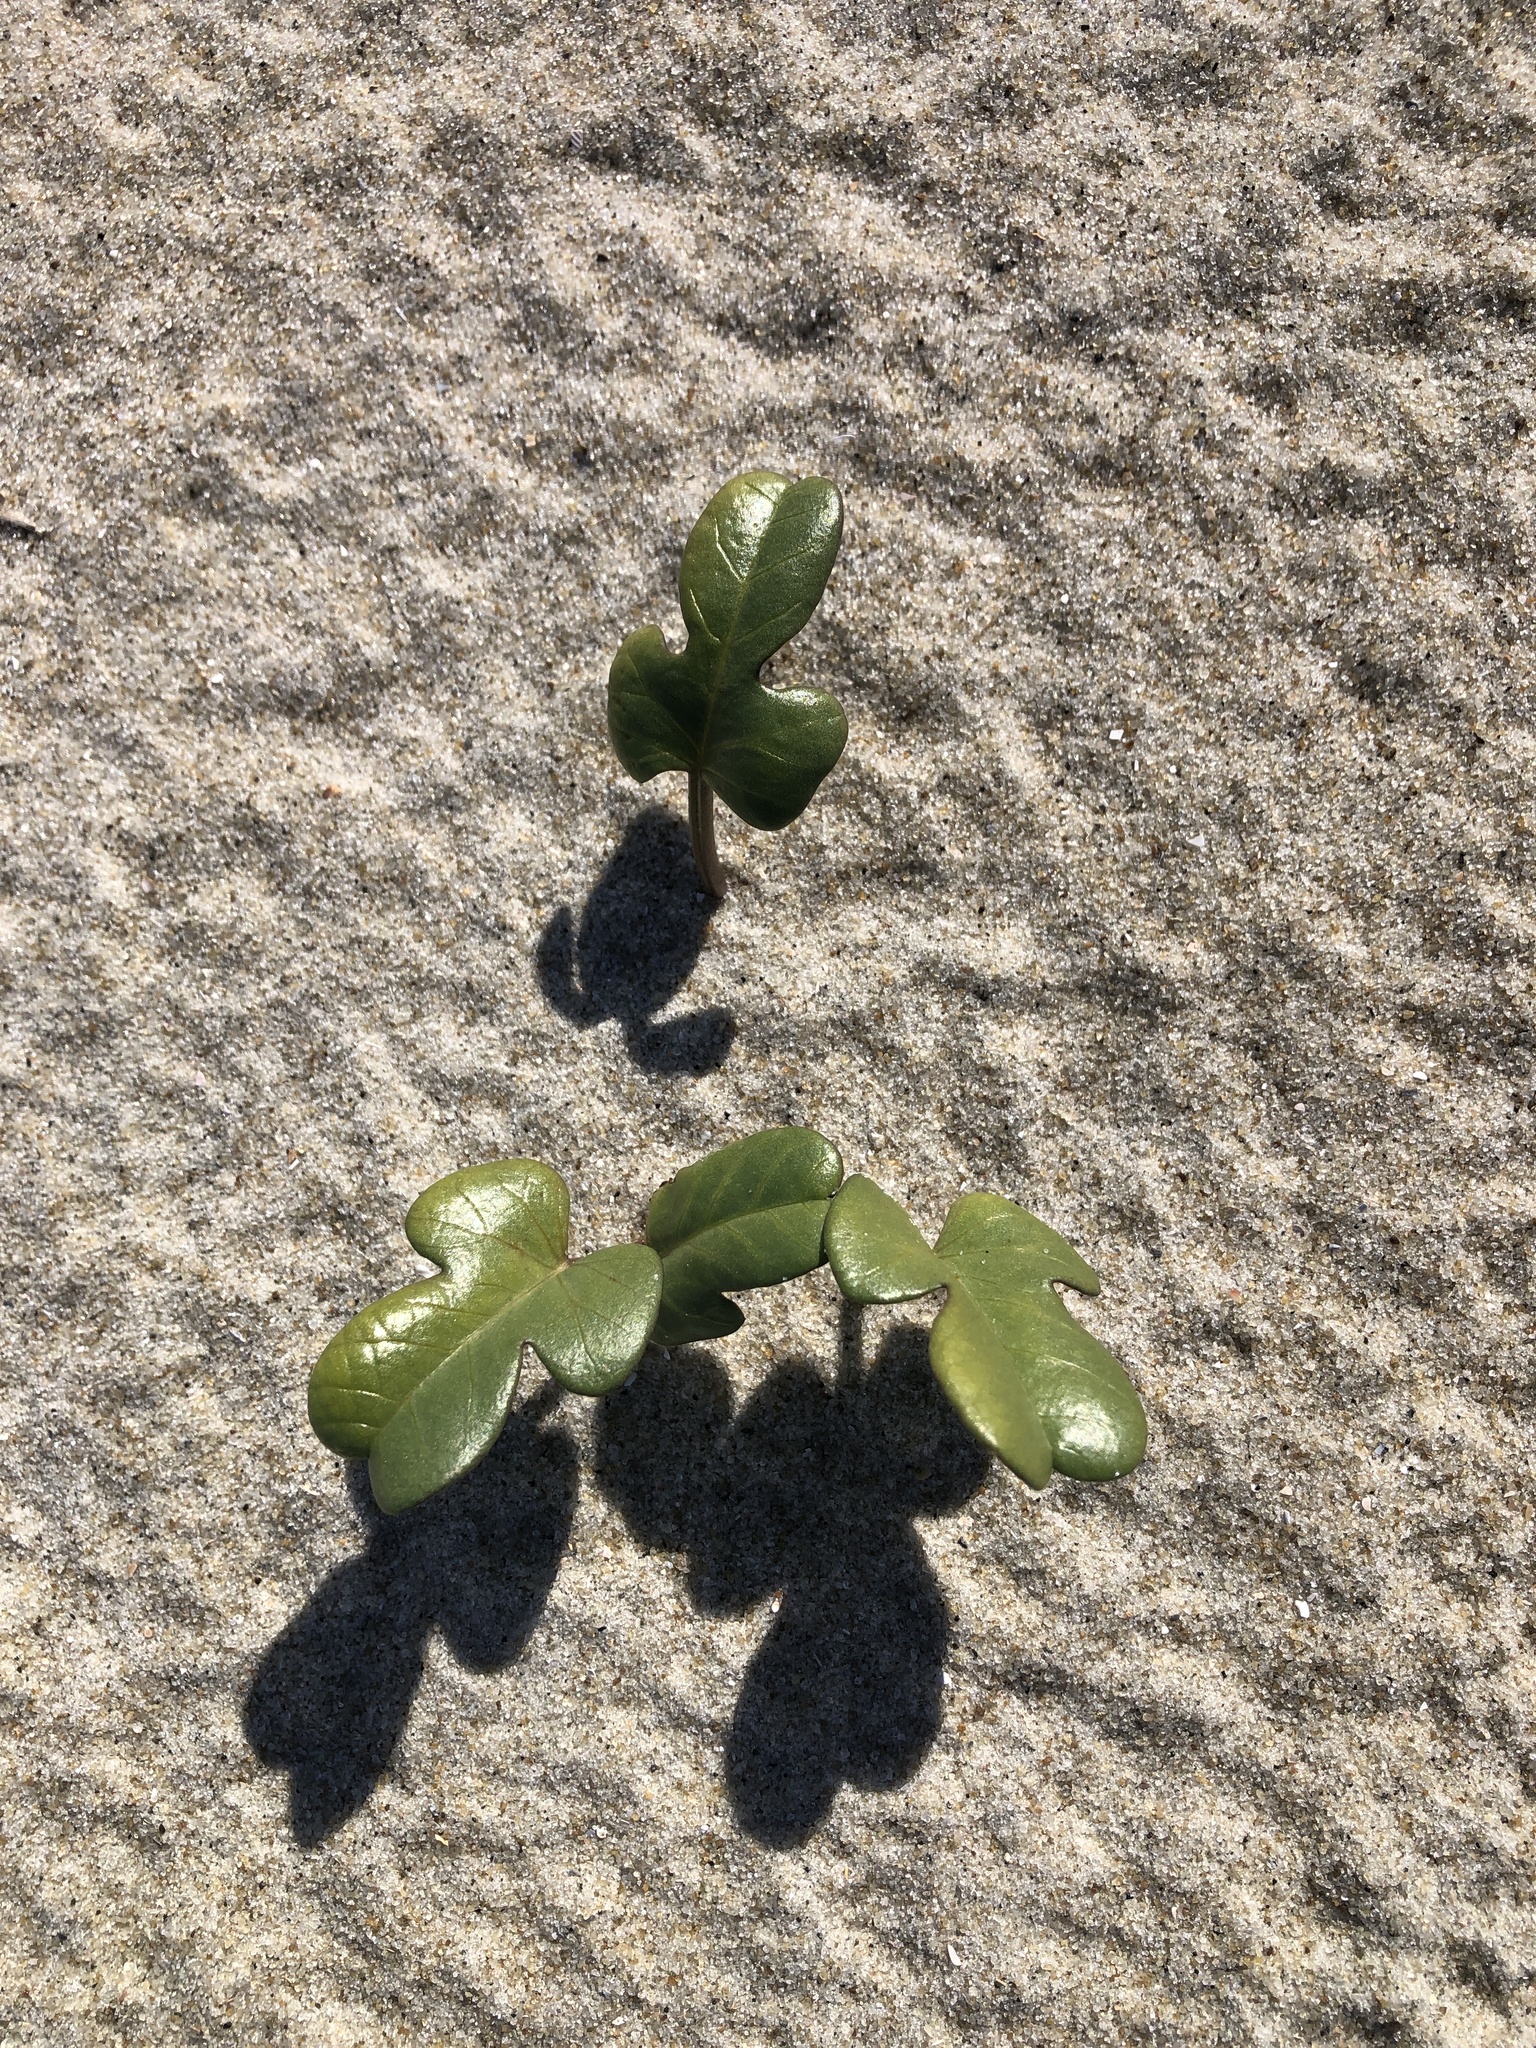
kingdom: Plantae
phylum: Tracheophyta
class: Magnoliopsida
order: Solanales
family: Convolvulaceae
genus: Ipomoea
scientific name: Ipomoea imperati
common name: Fiddle-leaf morning-glory
